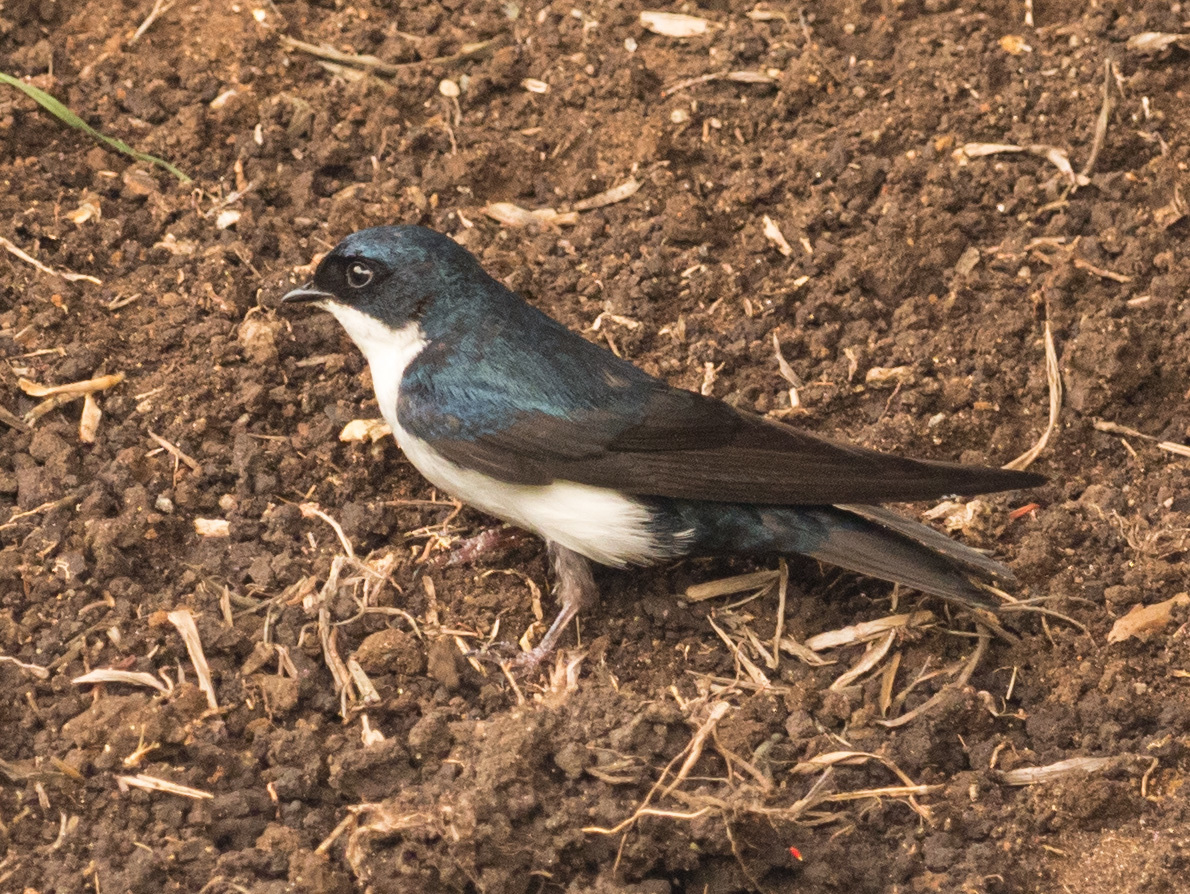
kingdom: Animalia
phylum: Chordata
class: Aves
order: Passeriformes
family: Hirundinidae
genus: Notiochelidon
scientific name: Notiochelidon cyanoleuca
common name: Blue-and-white swallow
